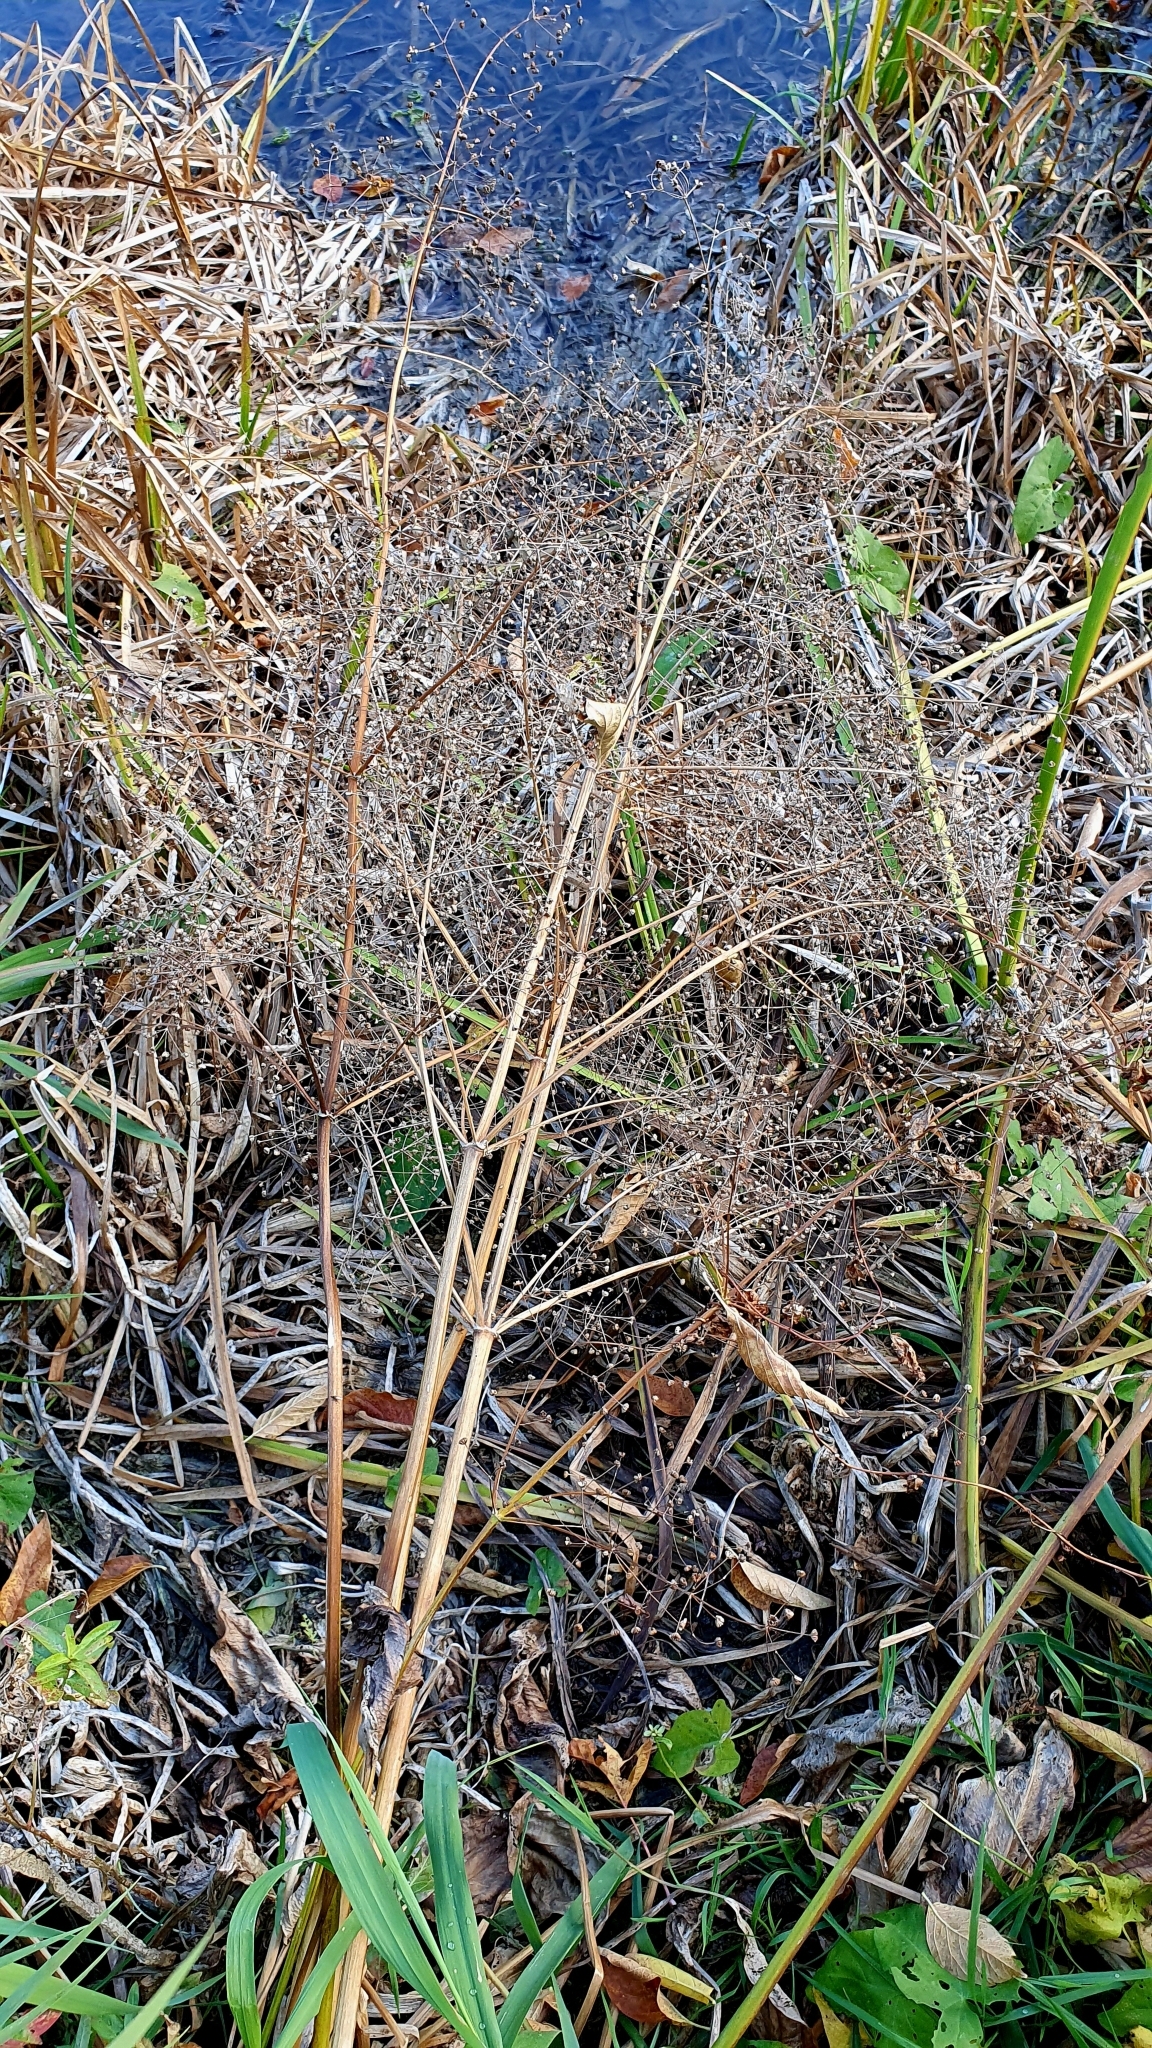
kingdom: Plantae
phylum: Tracheophyta
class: Liliopsida
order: Alismatales
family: Alismataceae
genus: Alisma
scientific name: Alisma plantago-aquatica
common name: Water-plantain
